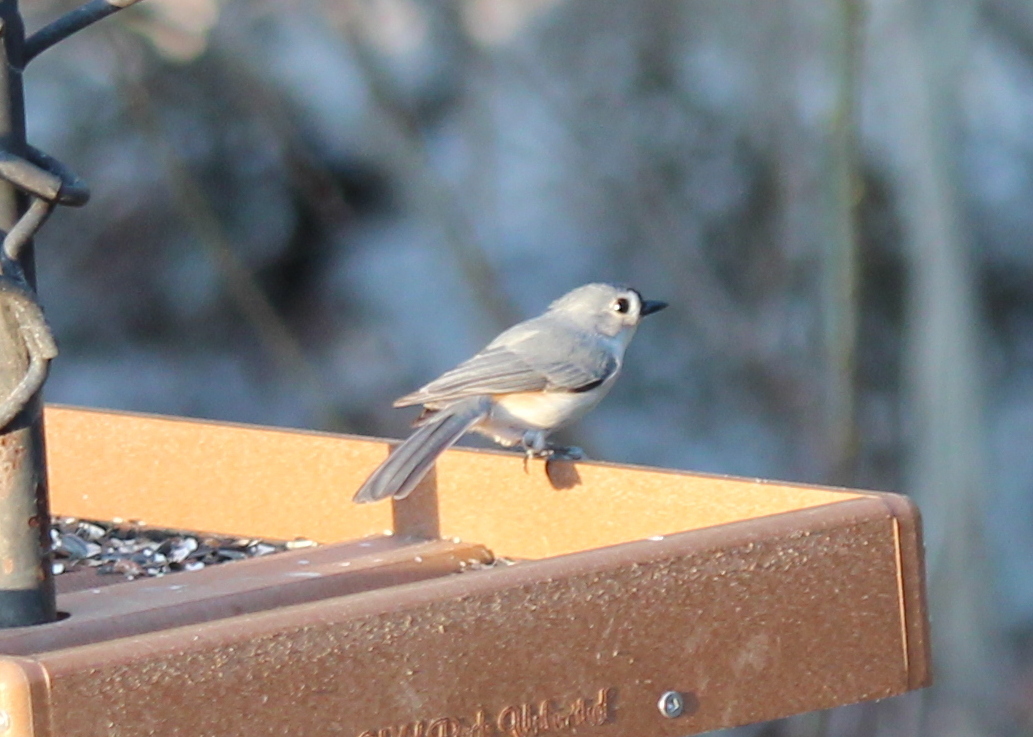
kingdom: Animalia
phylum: Chordata
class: Aves
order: Passeriformes
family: Paridae
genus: Baeolophus
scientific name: Baeolophus bicolor
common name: Tufted titmouse
